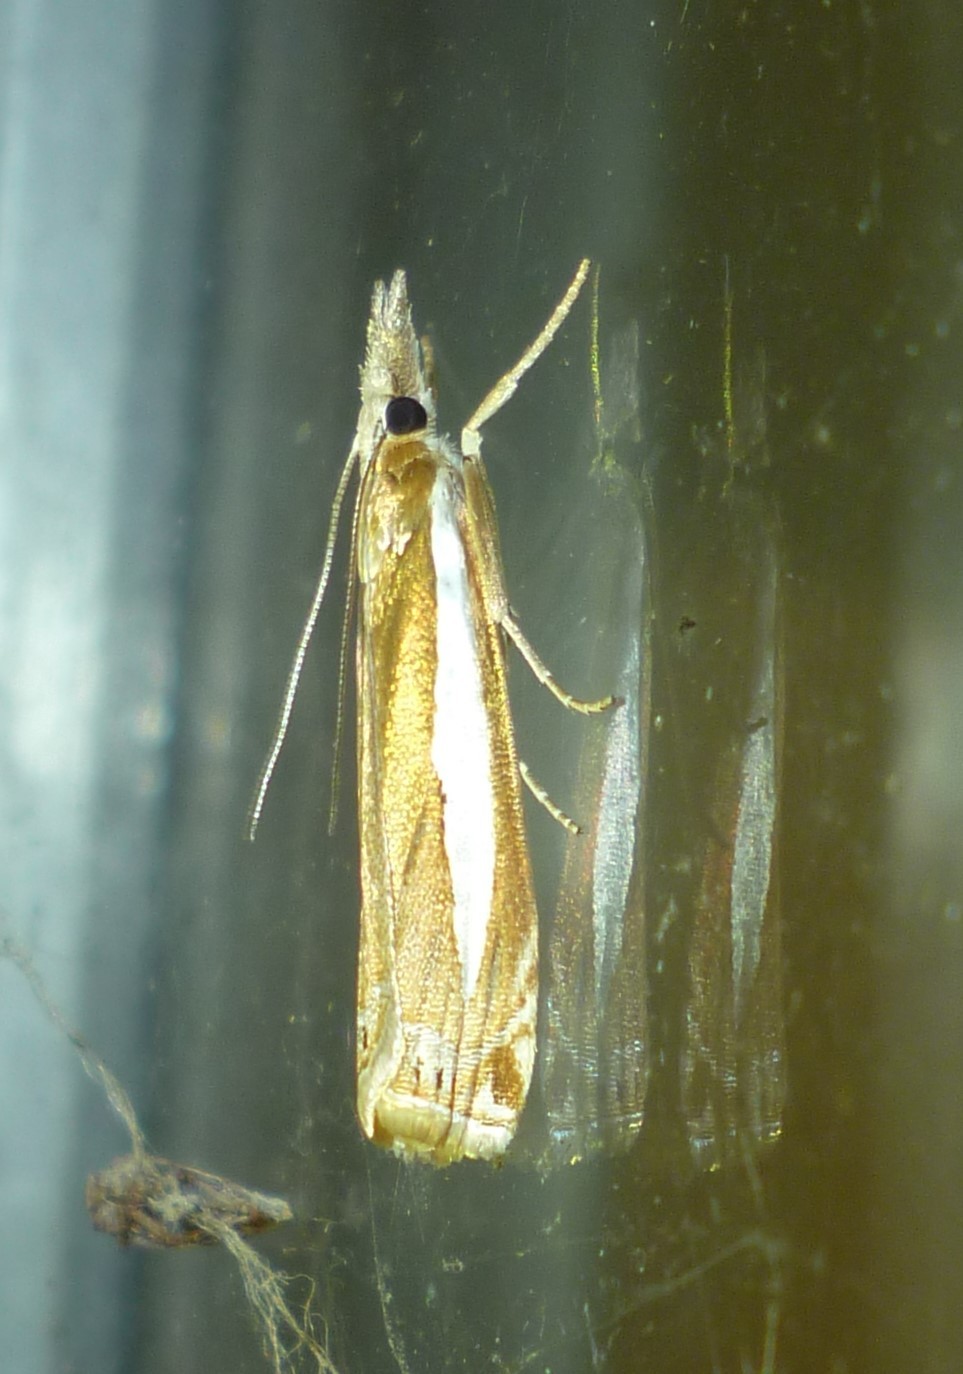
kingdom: Animalia
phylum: Arthropoda
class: Insecta
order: Lepidoptera
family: Crambidae
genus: Crambus
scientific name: Crambus praefectellus
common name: Common grass-veneer
